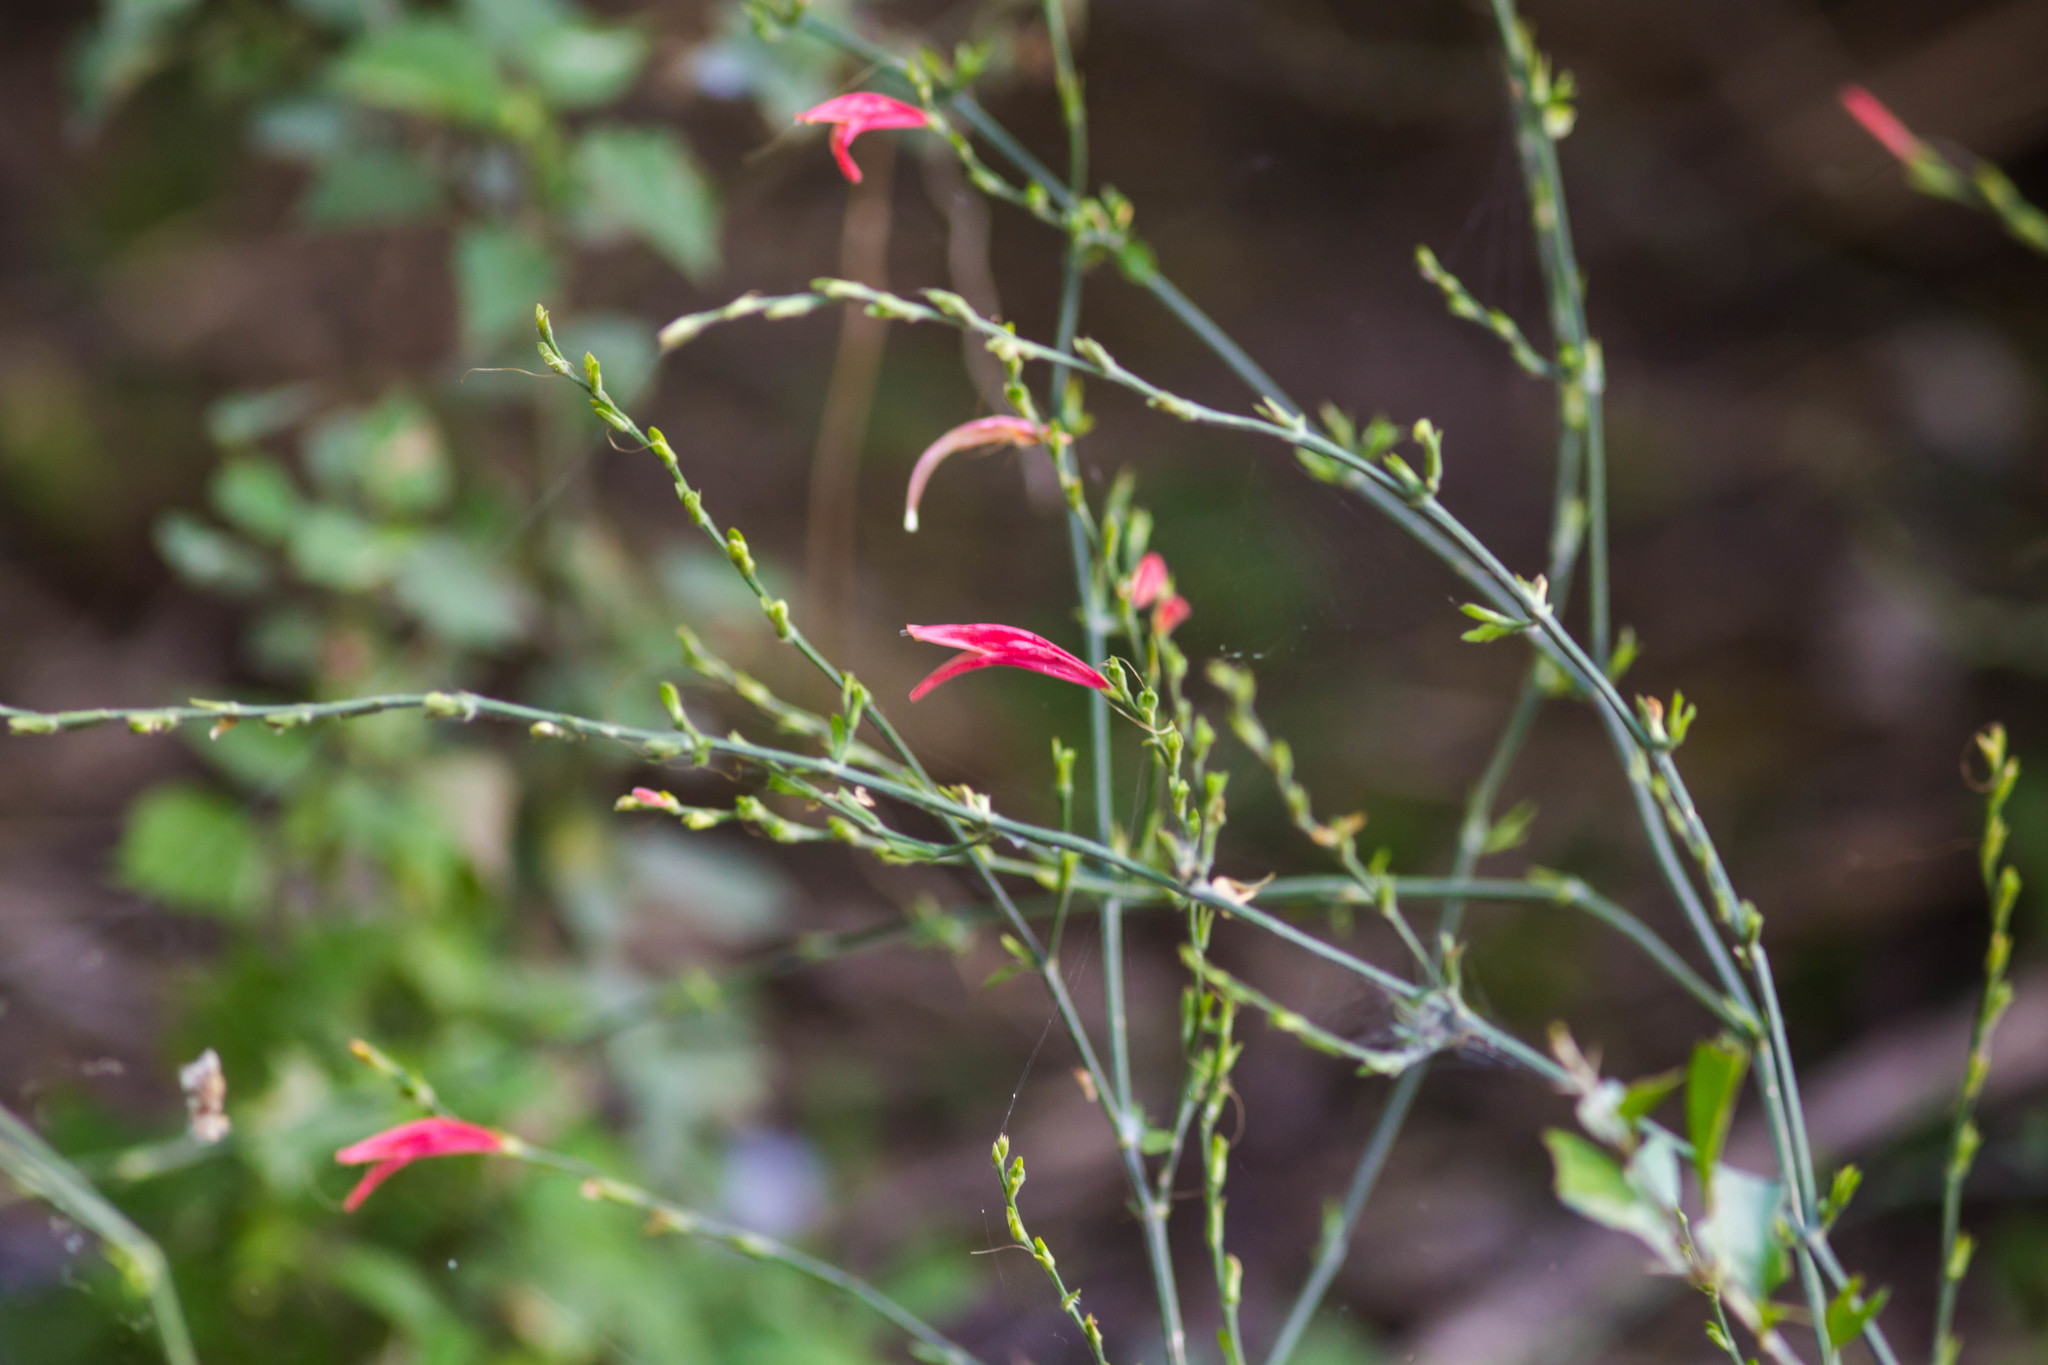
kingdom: Plantae
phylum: Tracheophyta
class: Magnoliopsida
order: Lamiales
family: Acanthaceae
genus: Dicliptera
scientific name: Dicliptera sexangularis
